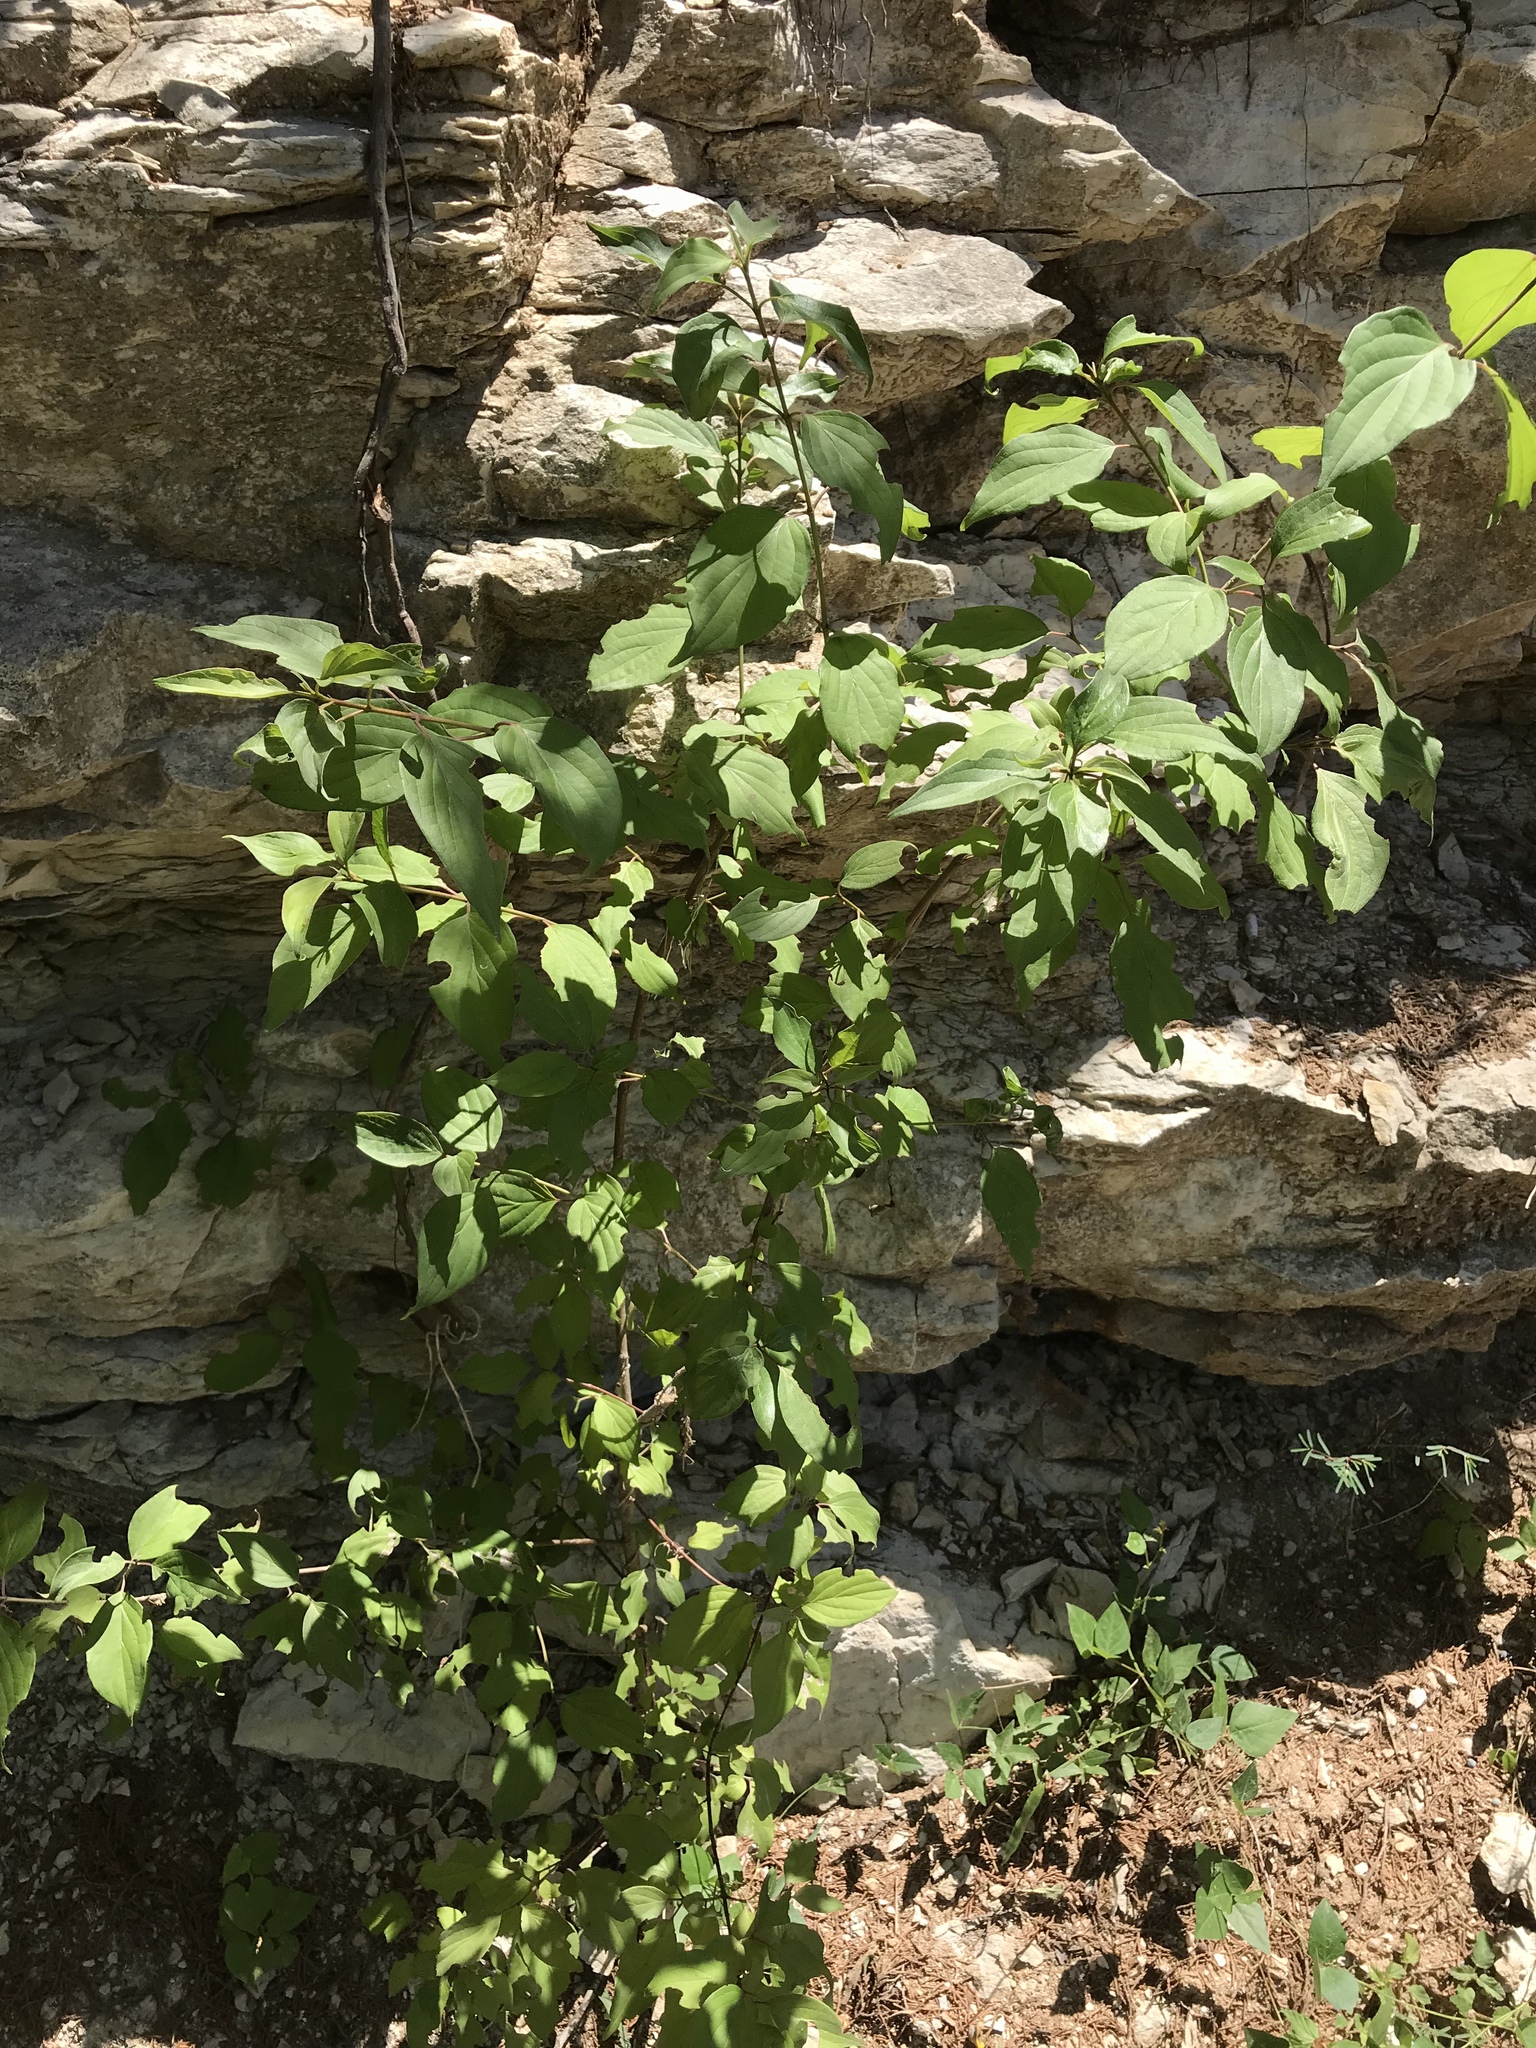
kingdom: Plantae
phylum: Tracheophyta
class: Magnoliopsida
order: Cornales
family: Cornaceae
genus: Cornus
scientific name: Cornus drummondii
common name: Rough-leaf dogwood
